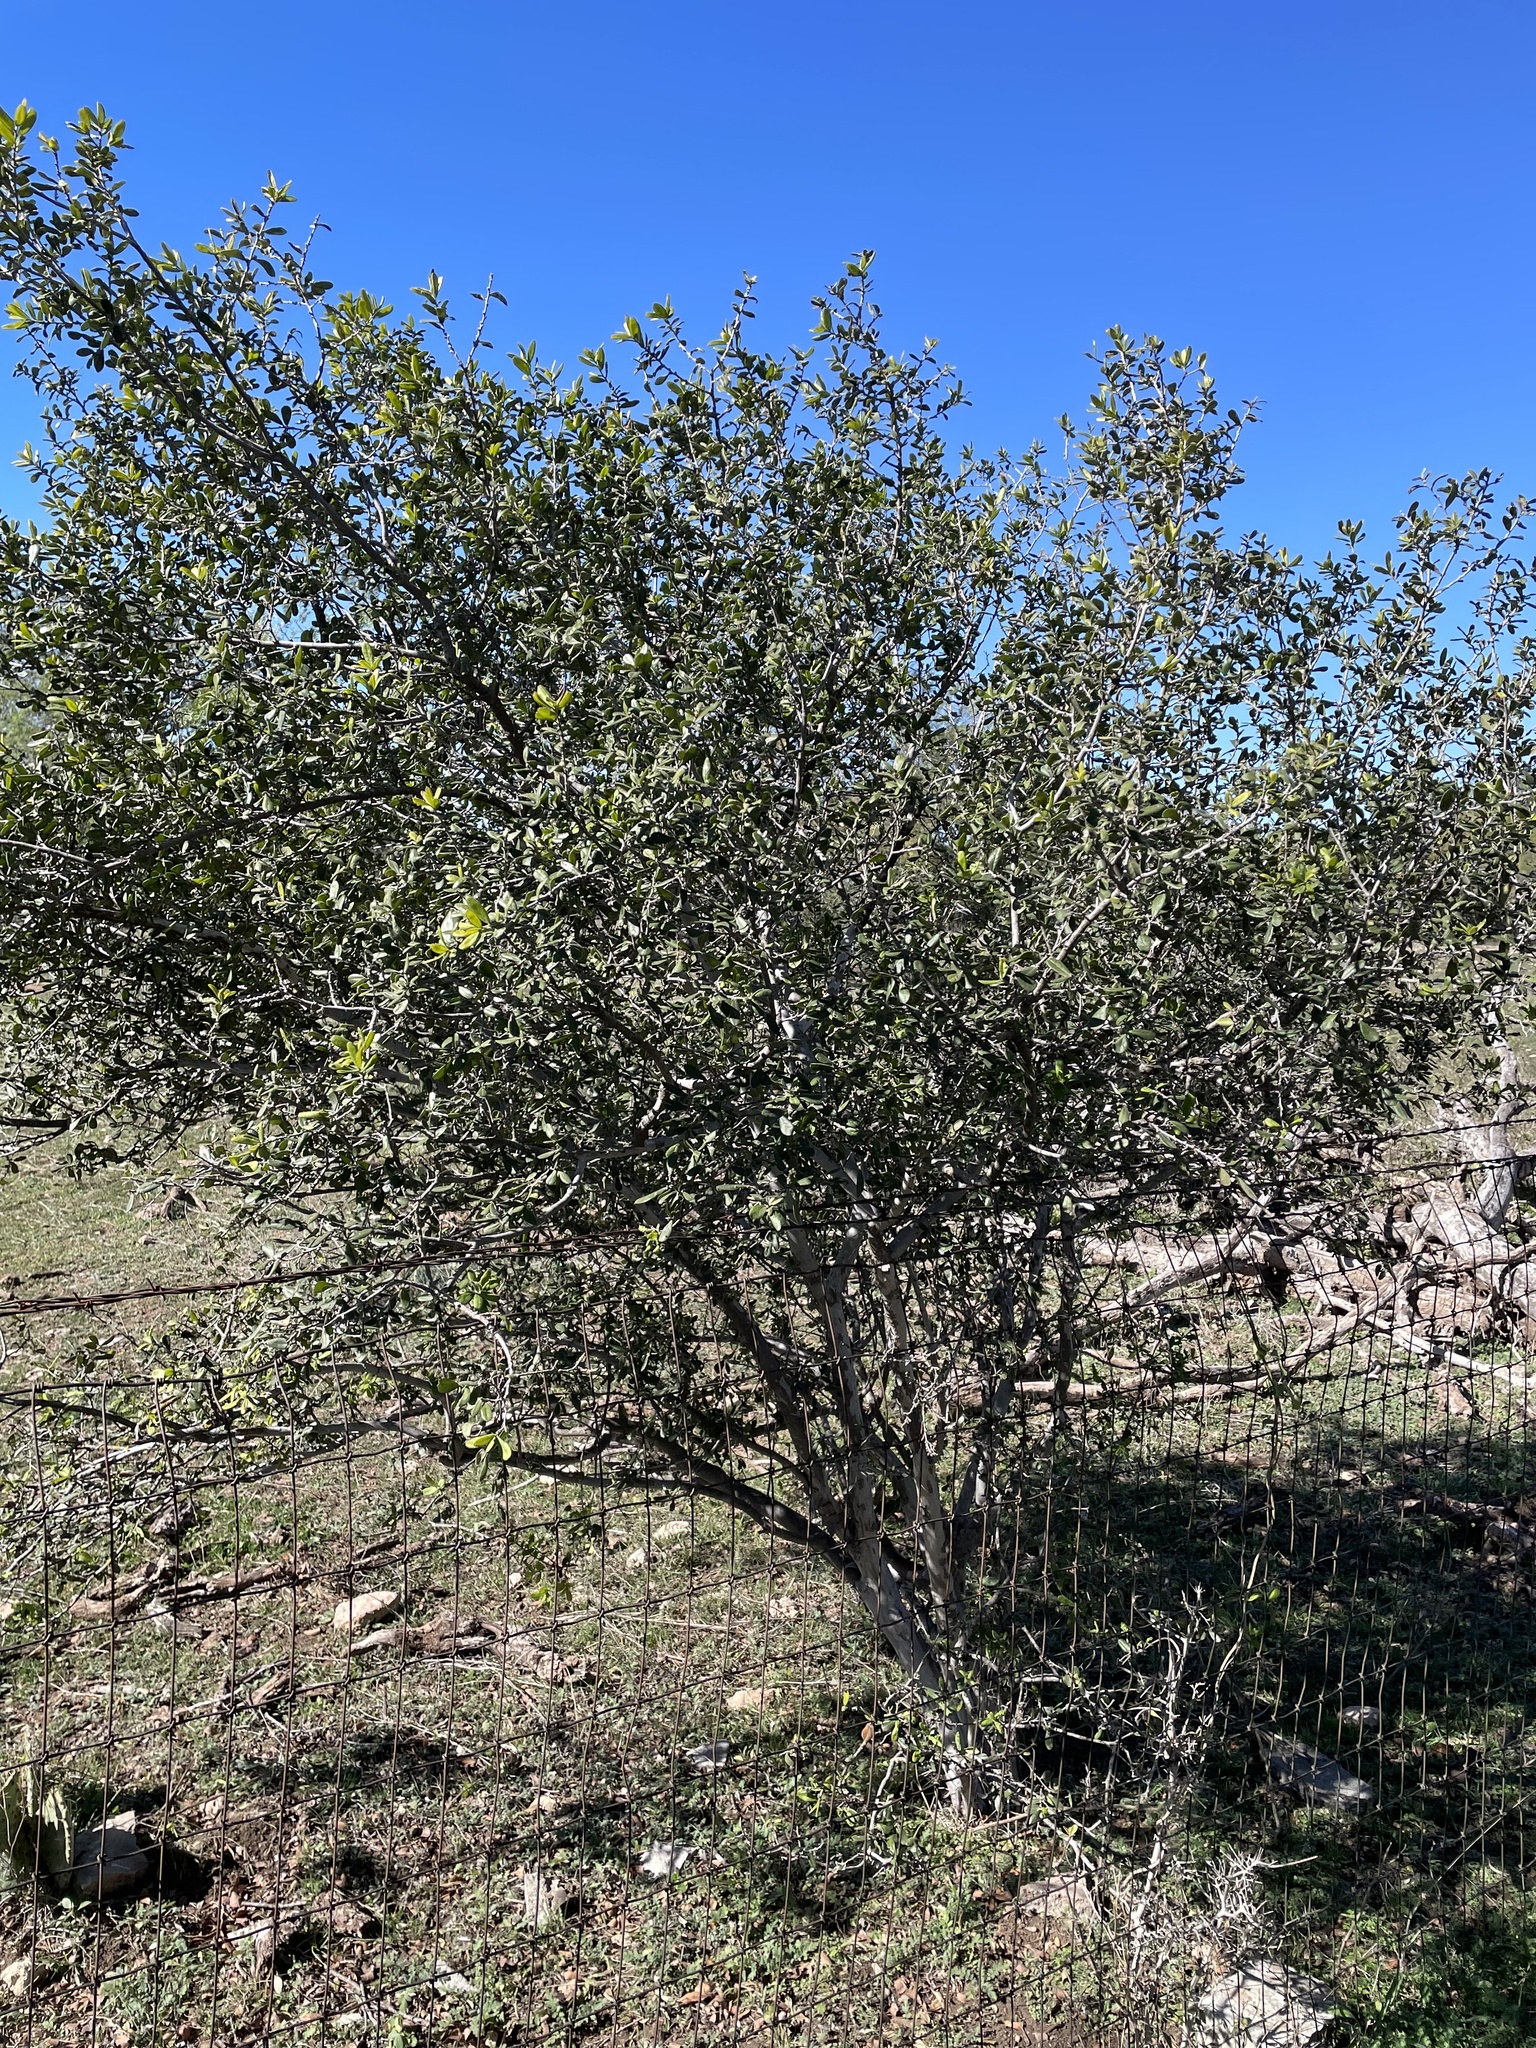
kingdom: Plantae
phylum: Tracheophyta
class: Magnoliopsida
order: Ericales
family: Ebenaceae
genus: Diospyros
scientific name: Diospyros texana
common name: Texas persimmon
